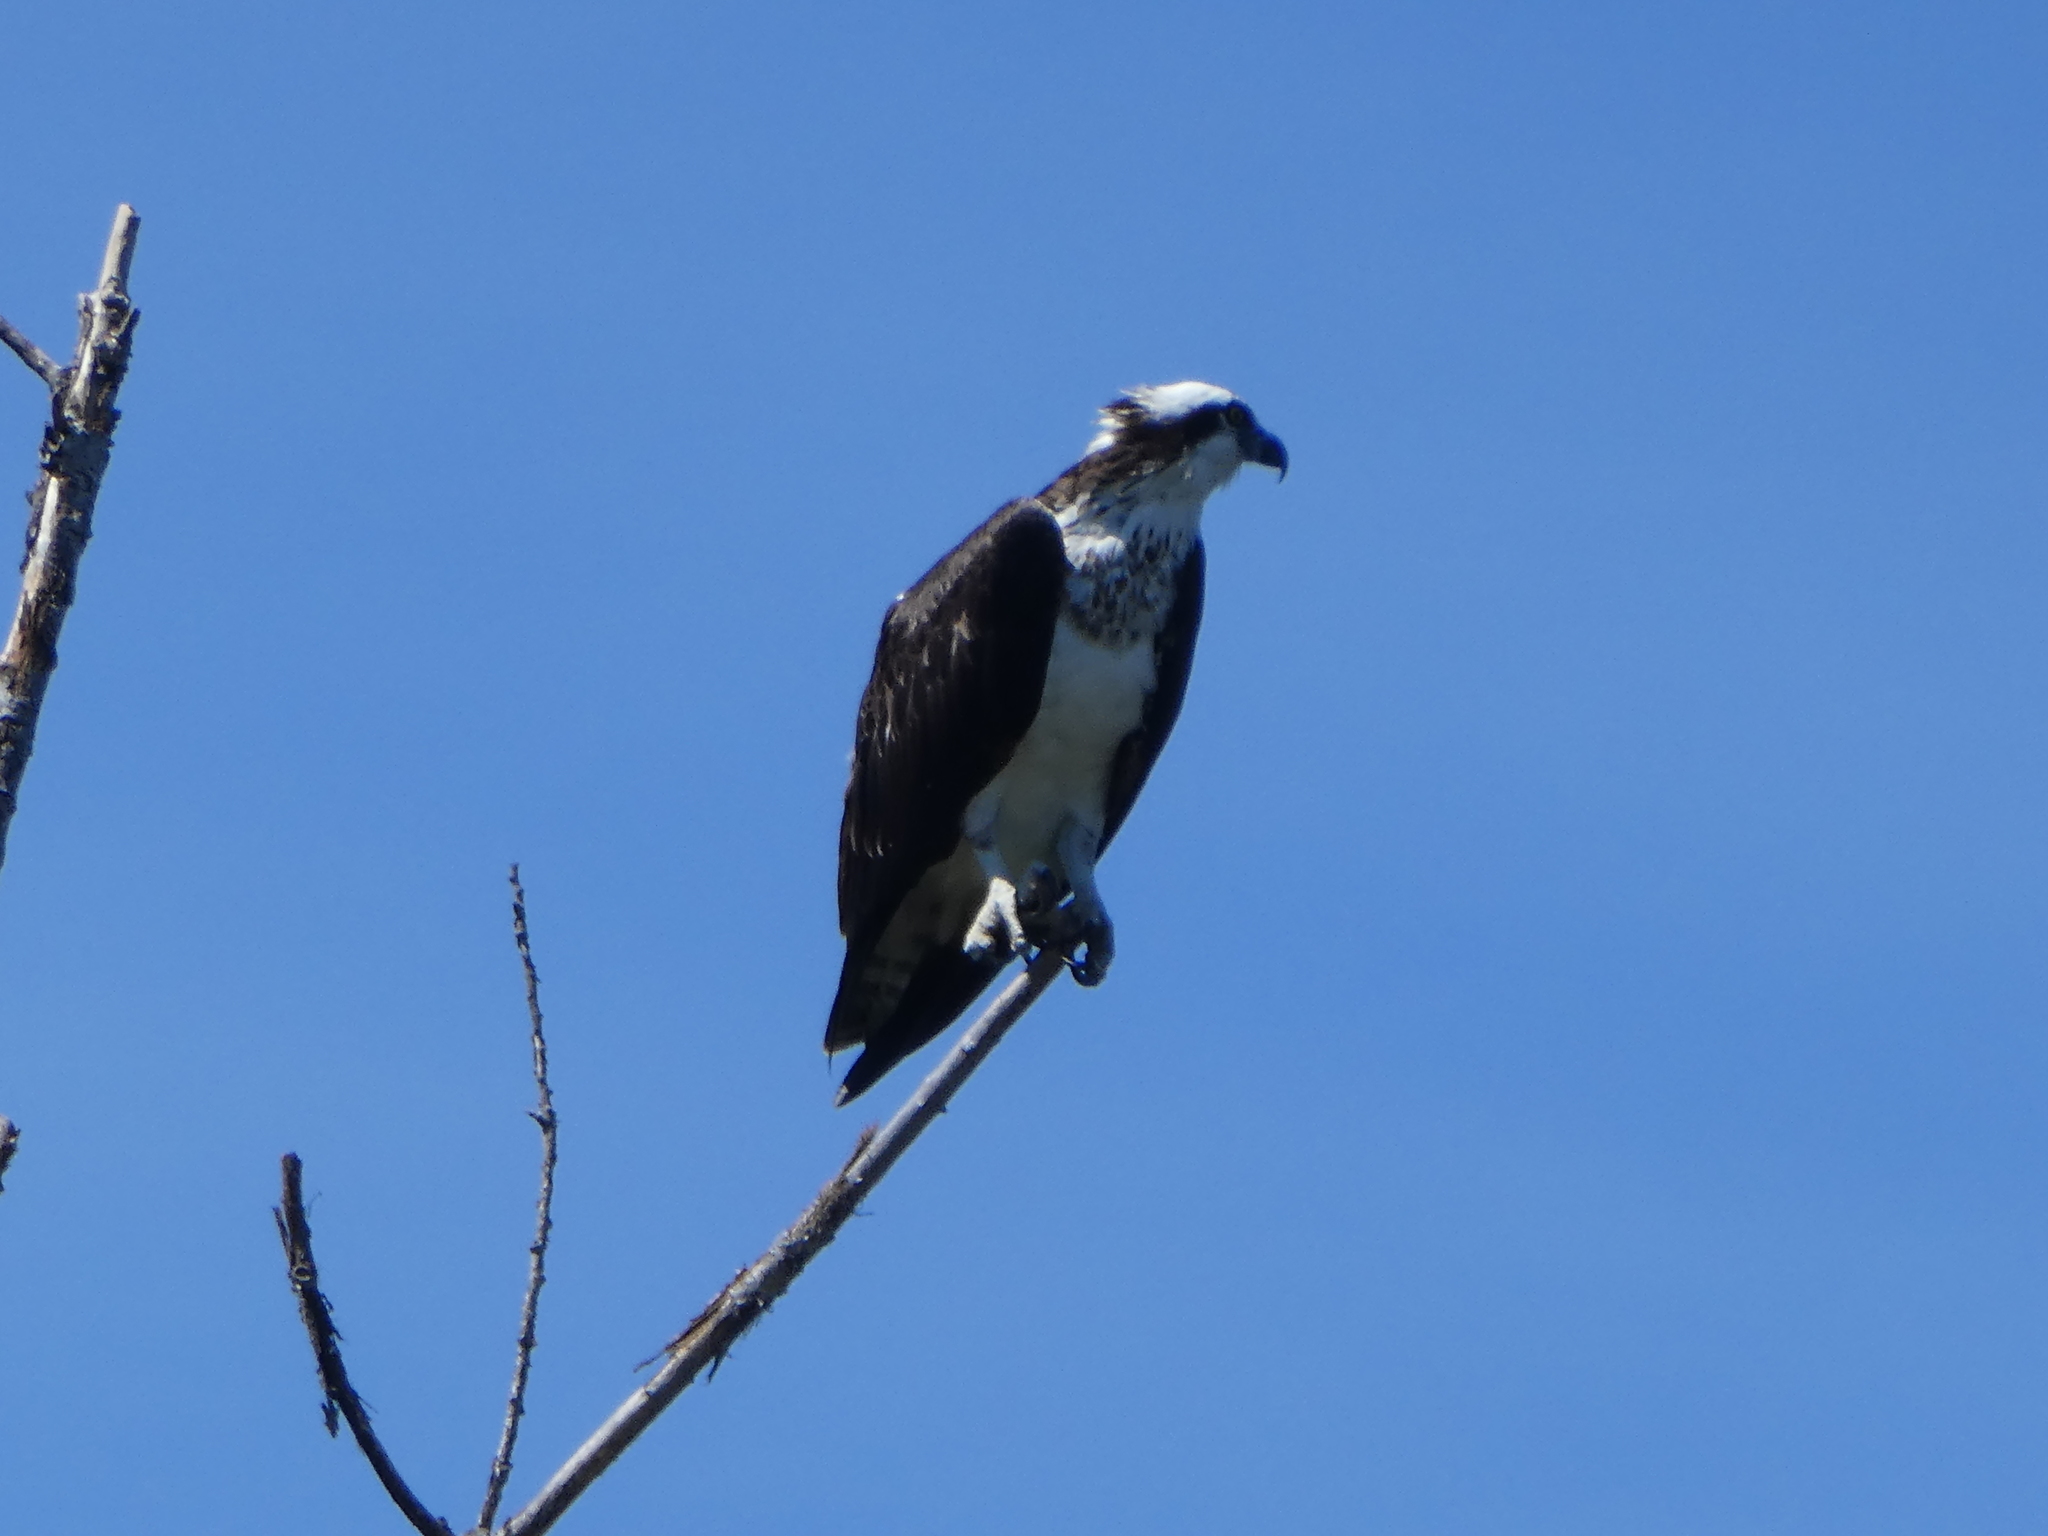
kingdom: Animalia
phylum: Chordata
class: Aves
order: Accipitriformes
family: Pandionidae
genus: Pandion
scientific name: Pandion haliaetus
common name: Osprey
